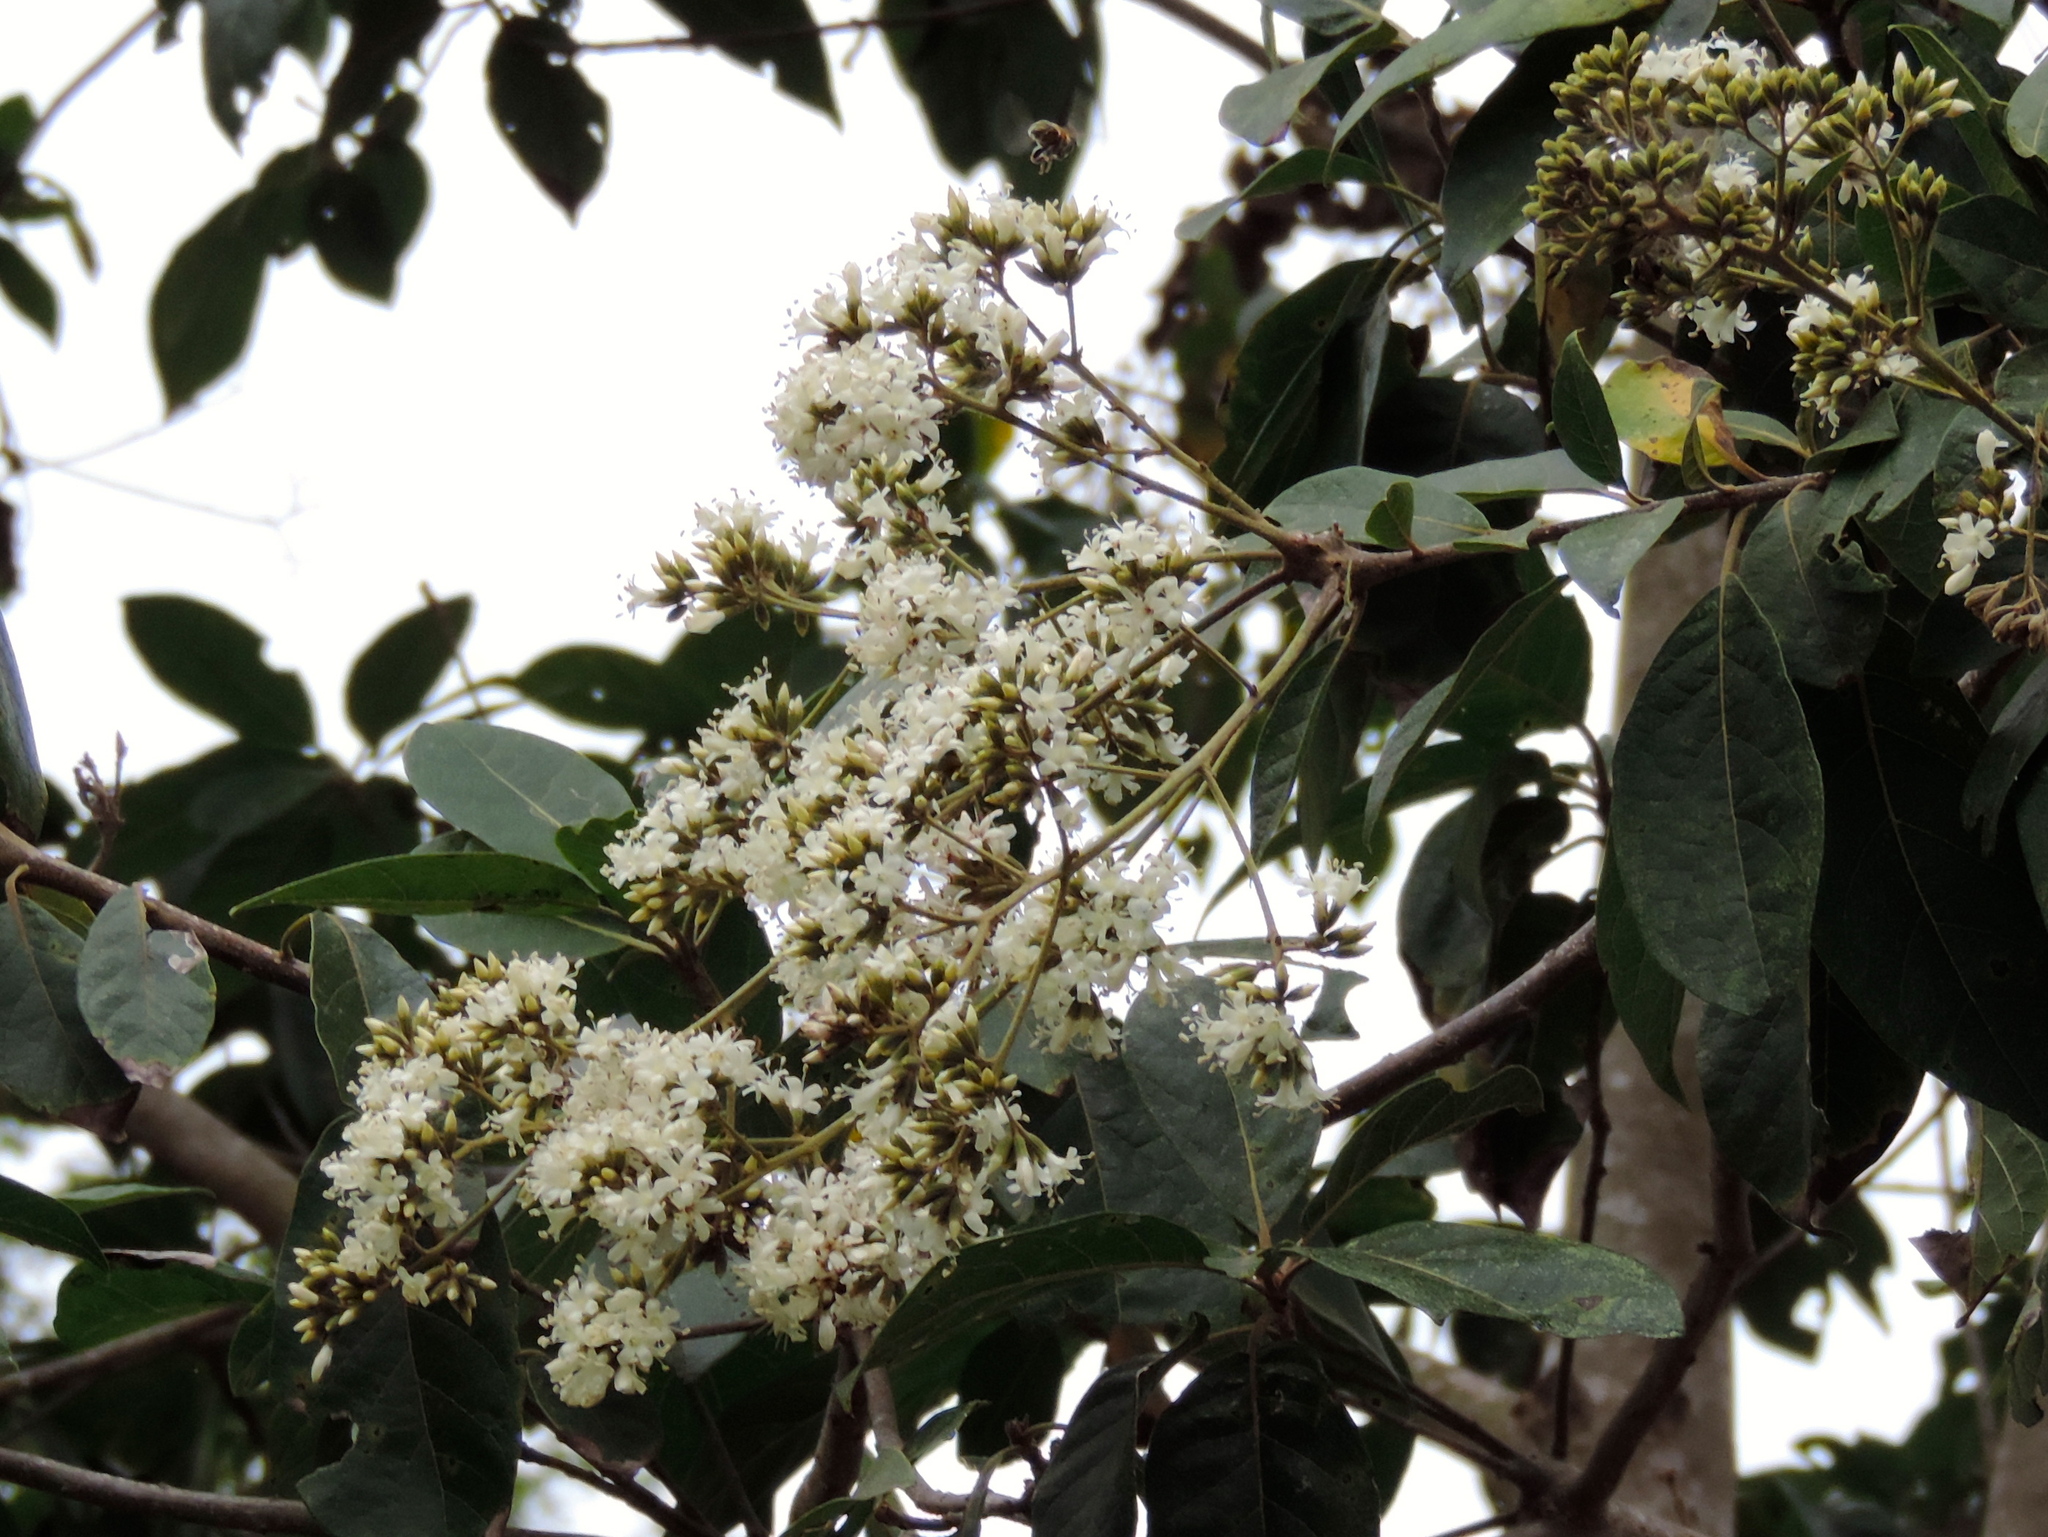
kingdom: Plantae
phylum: Tracheophyta
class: Magnoliopsida
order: Boraginales
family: Cordiaceae
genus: Cordia
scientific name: Cordia alliodora
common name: Spanish elm
